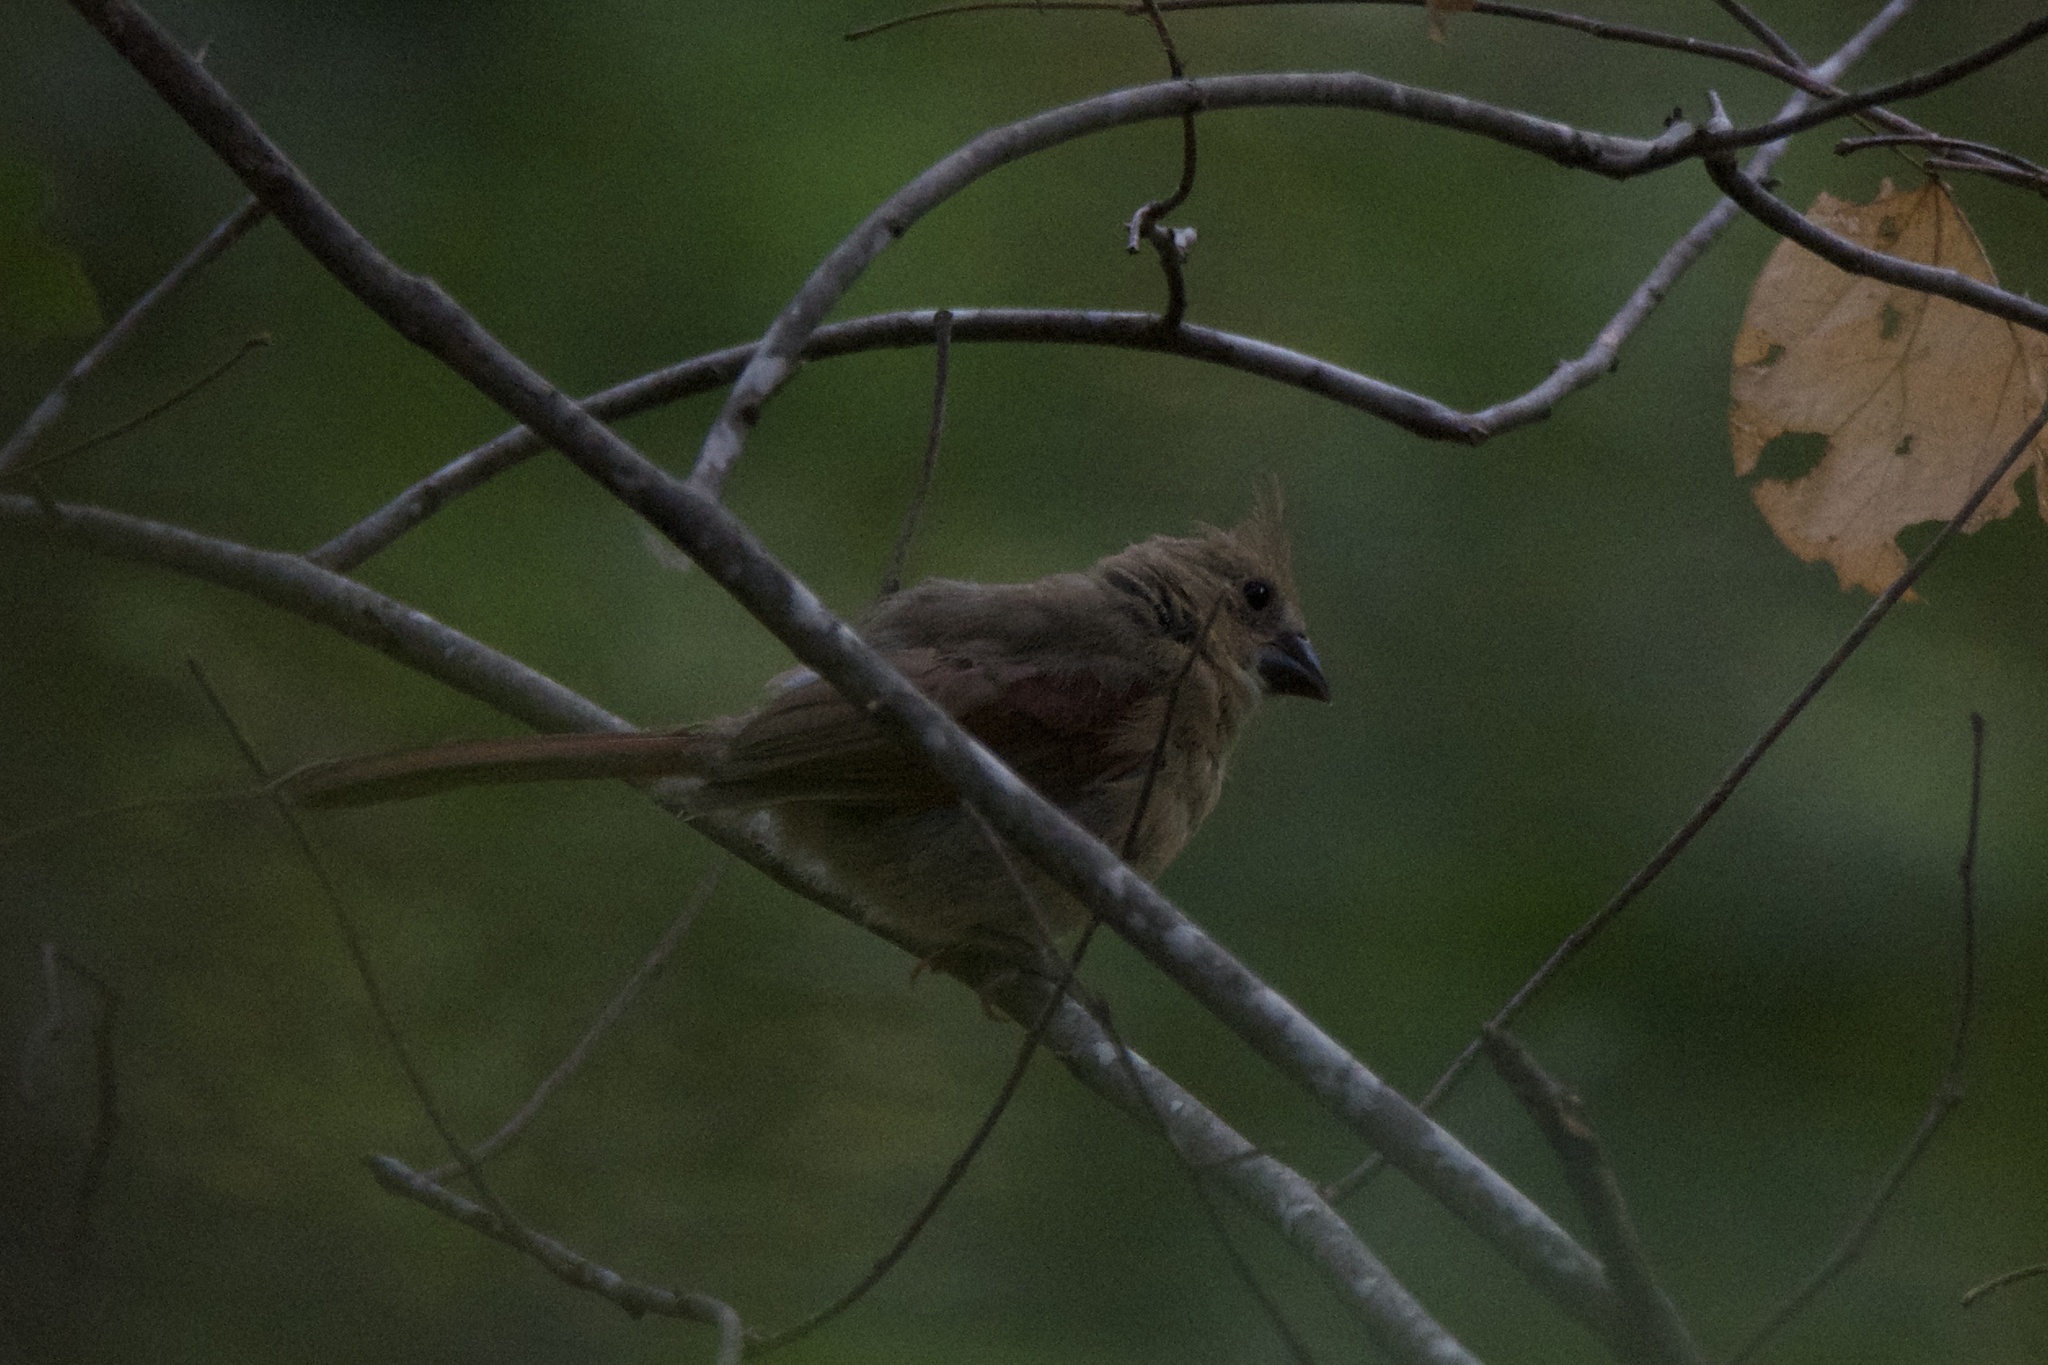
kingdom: Animalia
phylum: Chordata
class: Aves
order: Passeriformes
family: Cardinalidae
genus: Cardinalis
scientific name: Cardinalis cardinalis
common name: Northern cardinal
